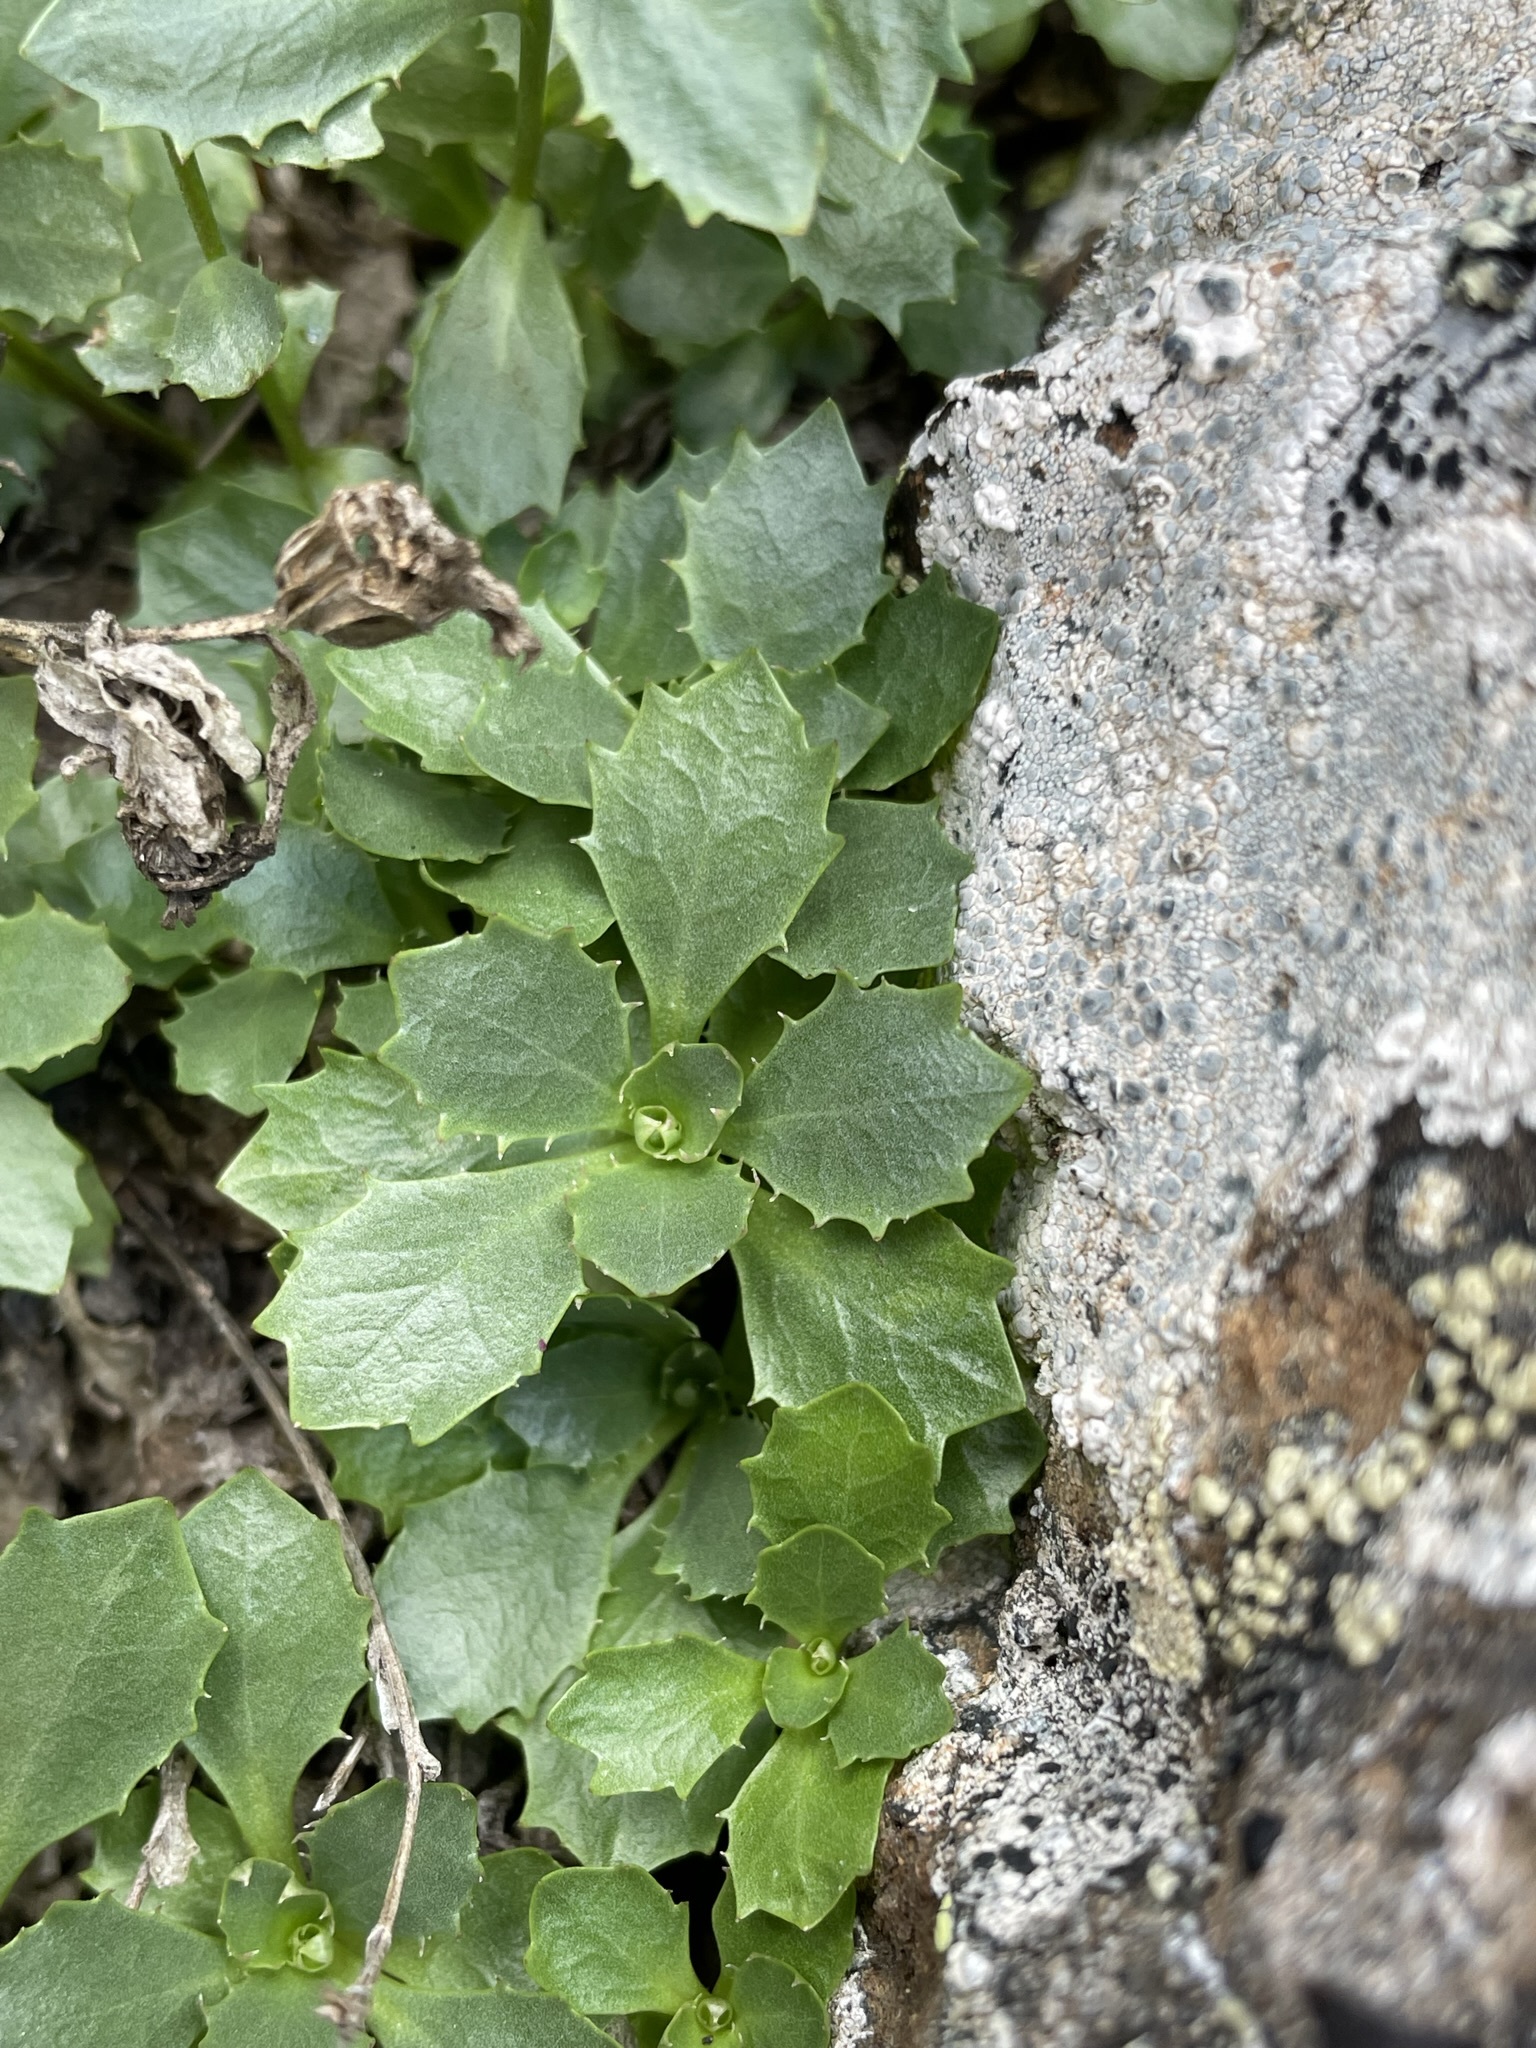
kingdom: Plantae
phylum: Tracheophyta
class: Magnoliopsida
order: Asterales
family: Campanulaceae
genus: Campanula
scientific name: Campanula piperi
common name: Olympic bellflower
